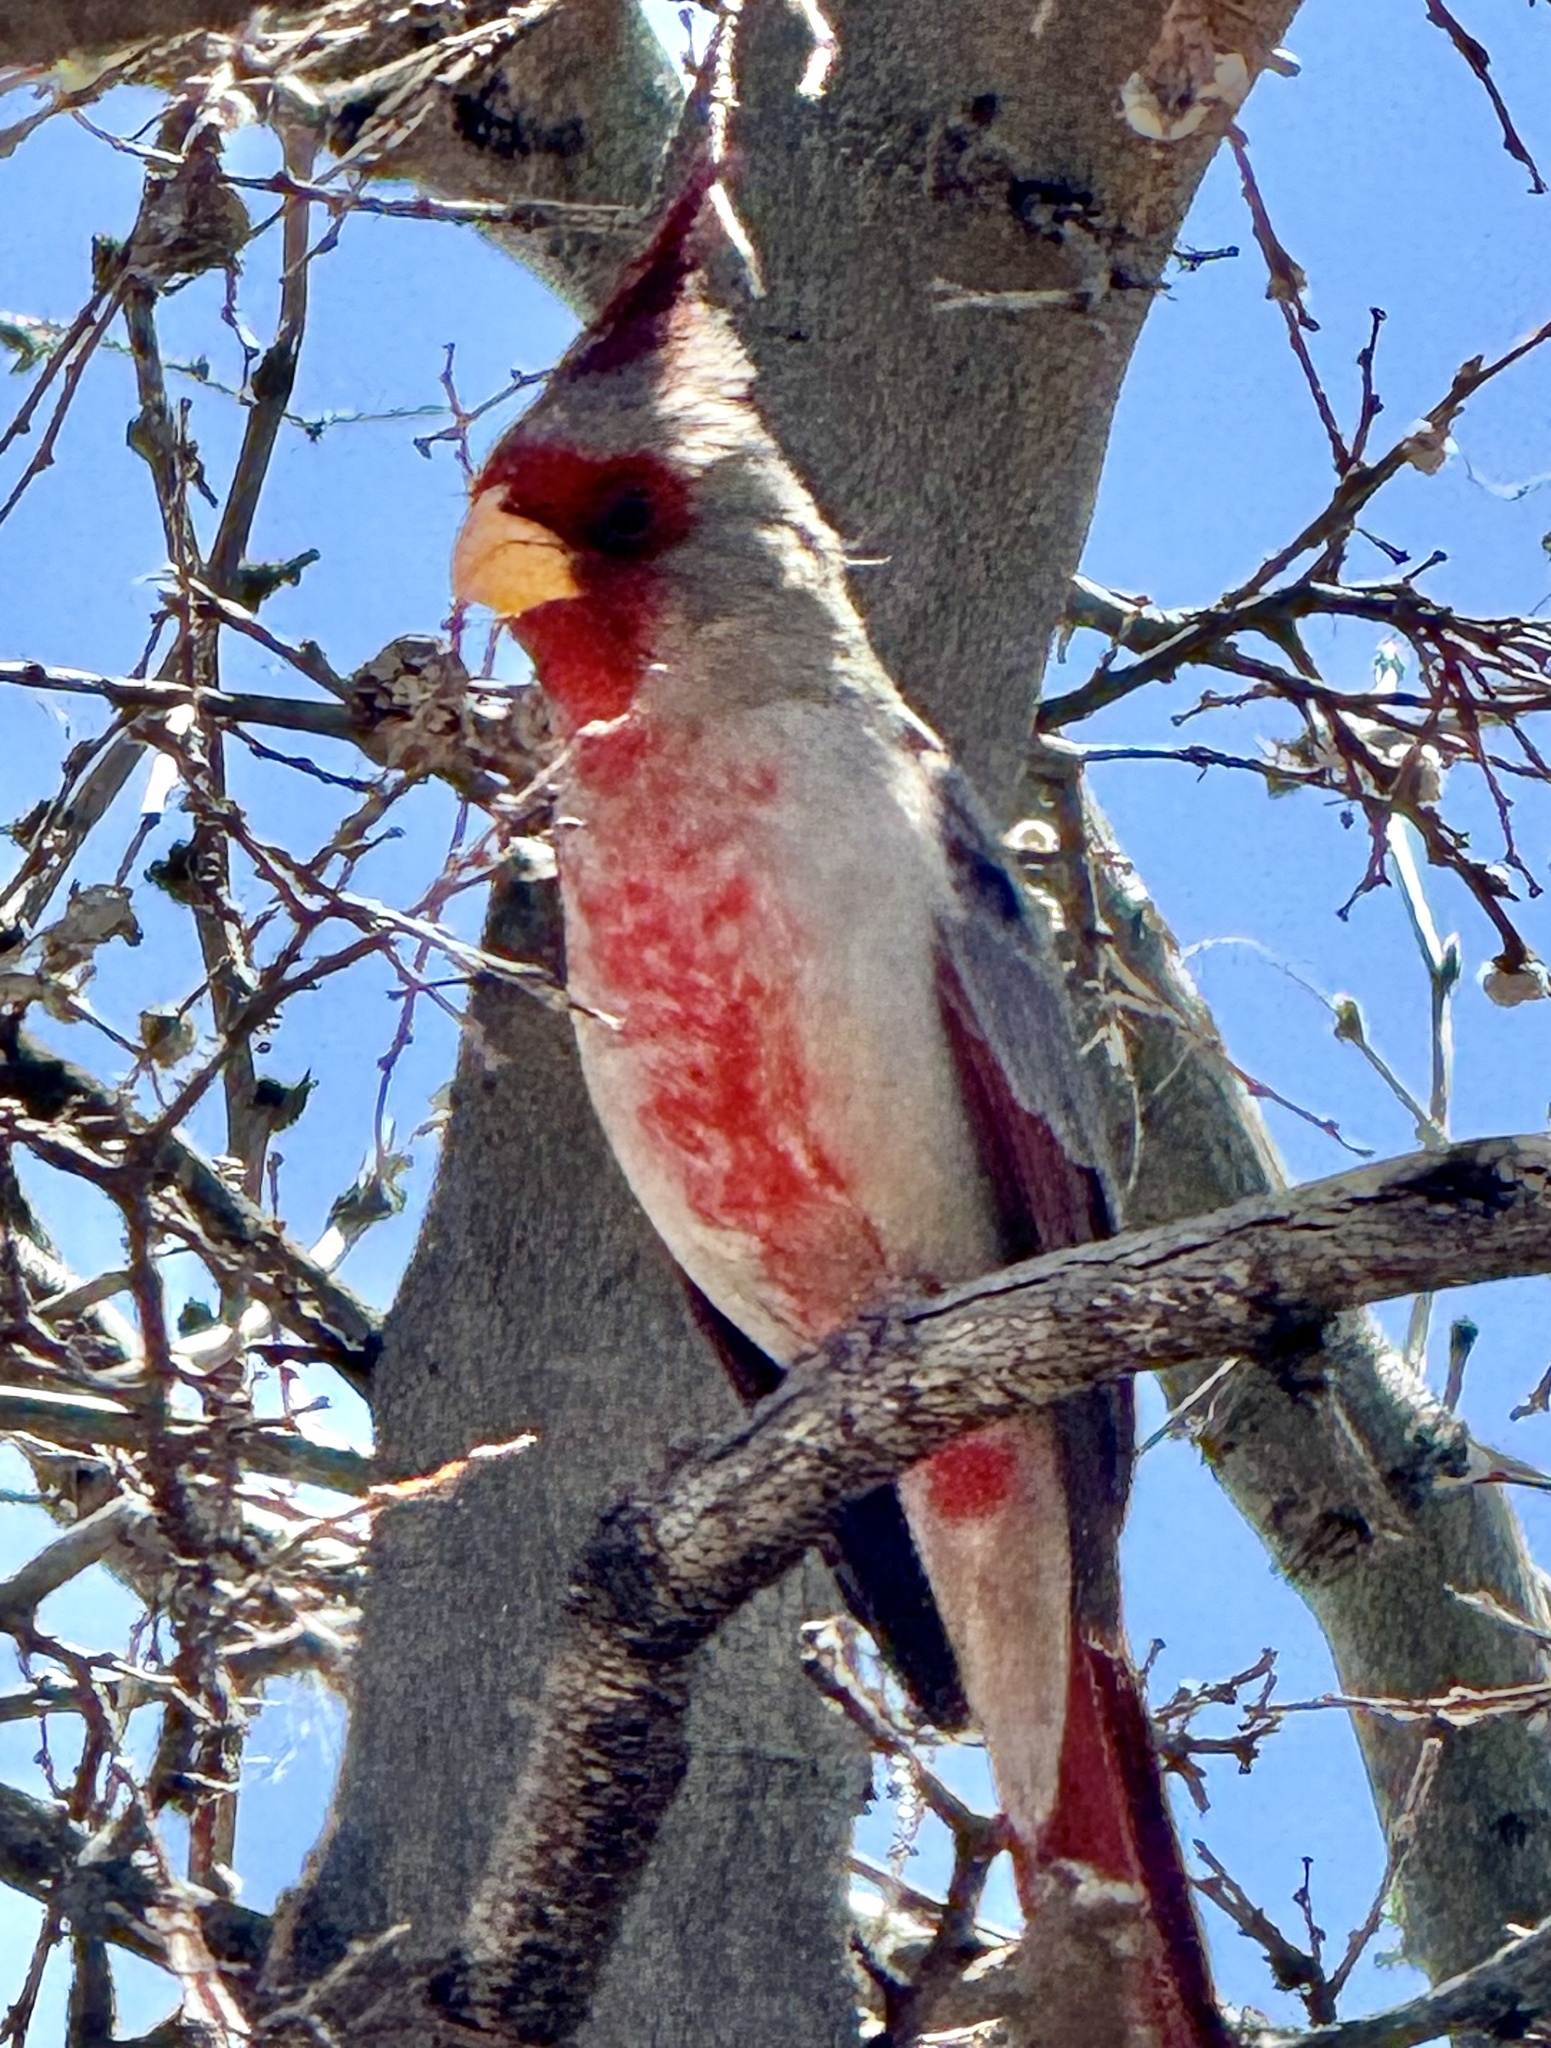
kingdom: Animalia
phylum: Chordata
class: Aves
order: Passeriformes
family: Cardinalidae
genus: Cardinalis
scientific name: Cardinalis sinuatus
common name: Pyrrhuloxia
